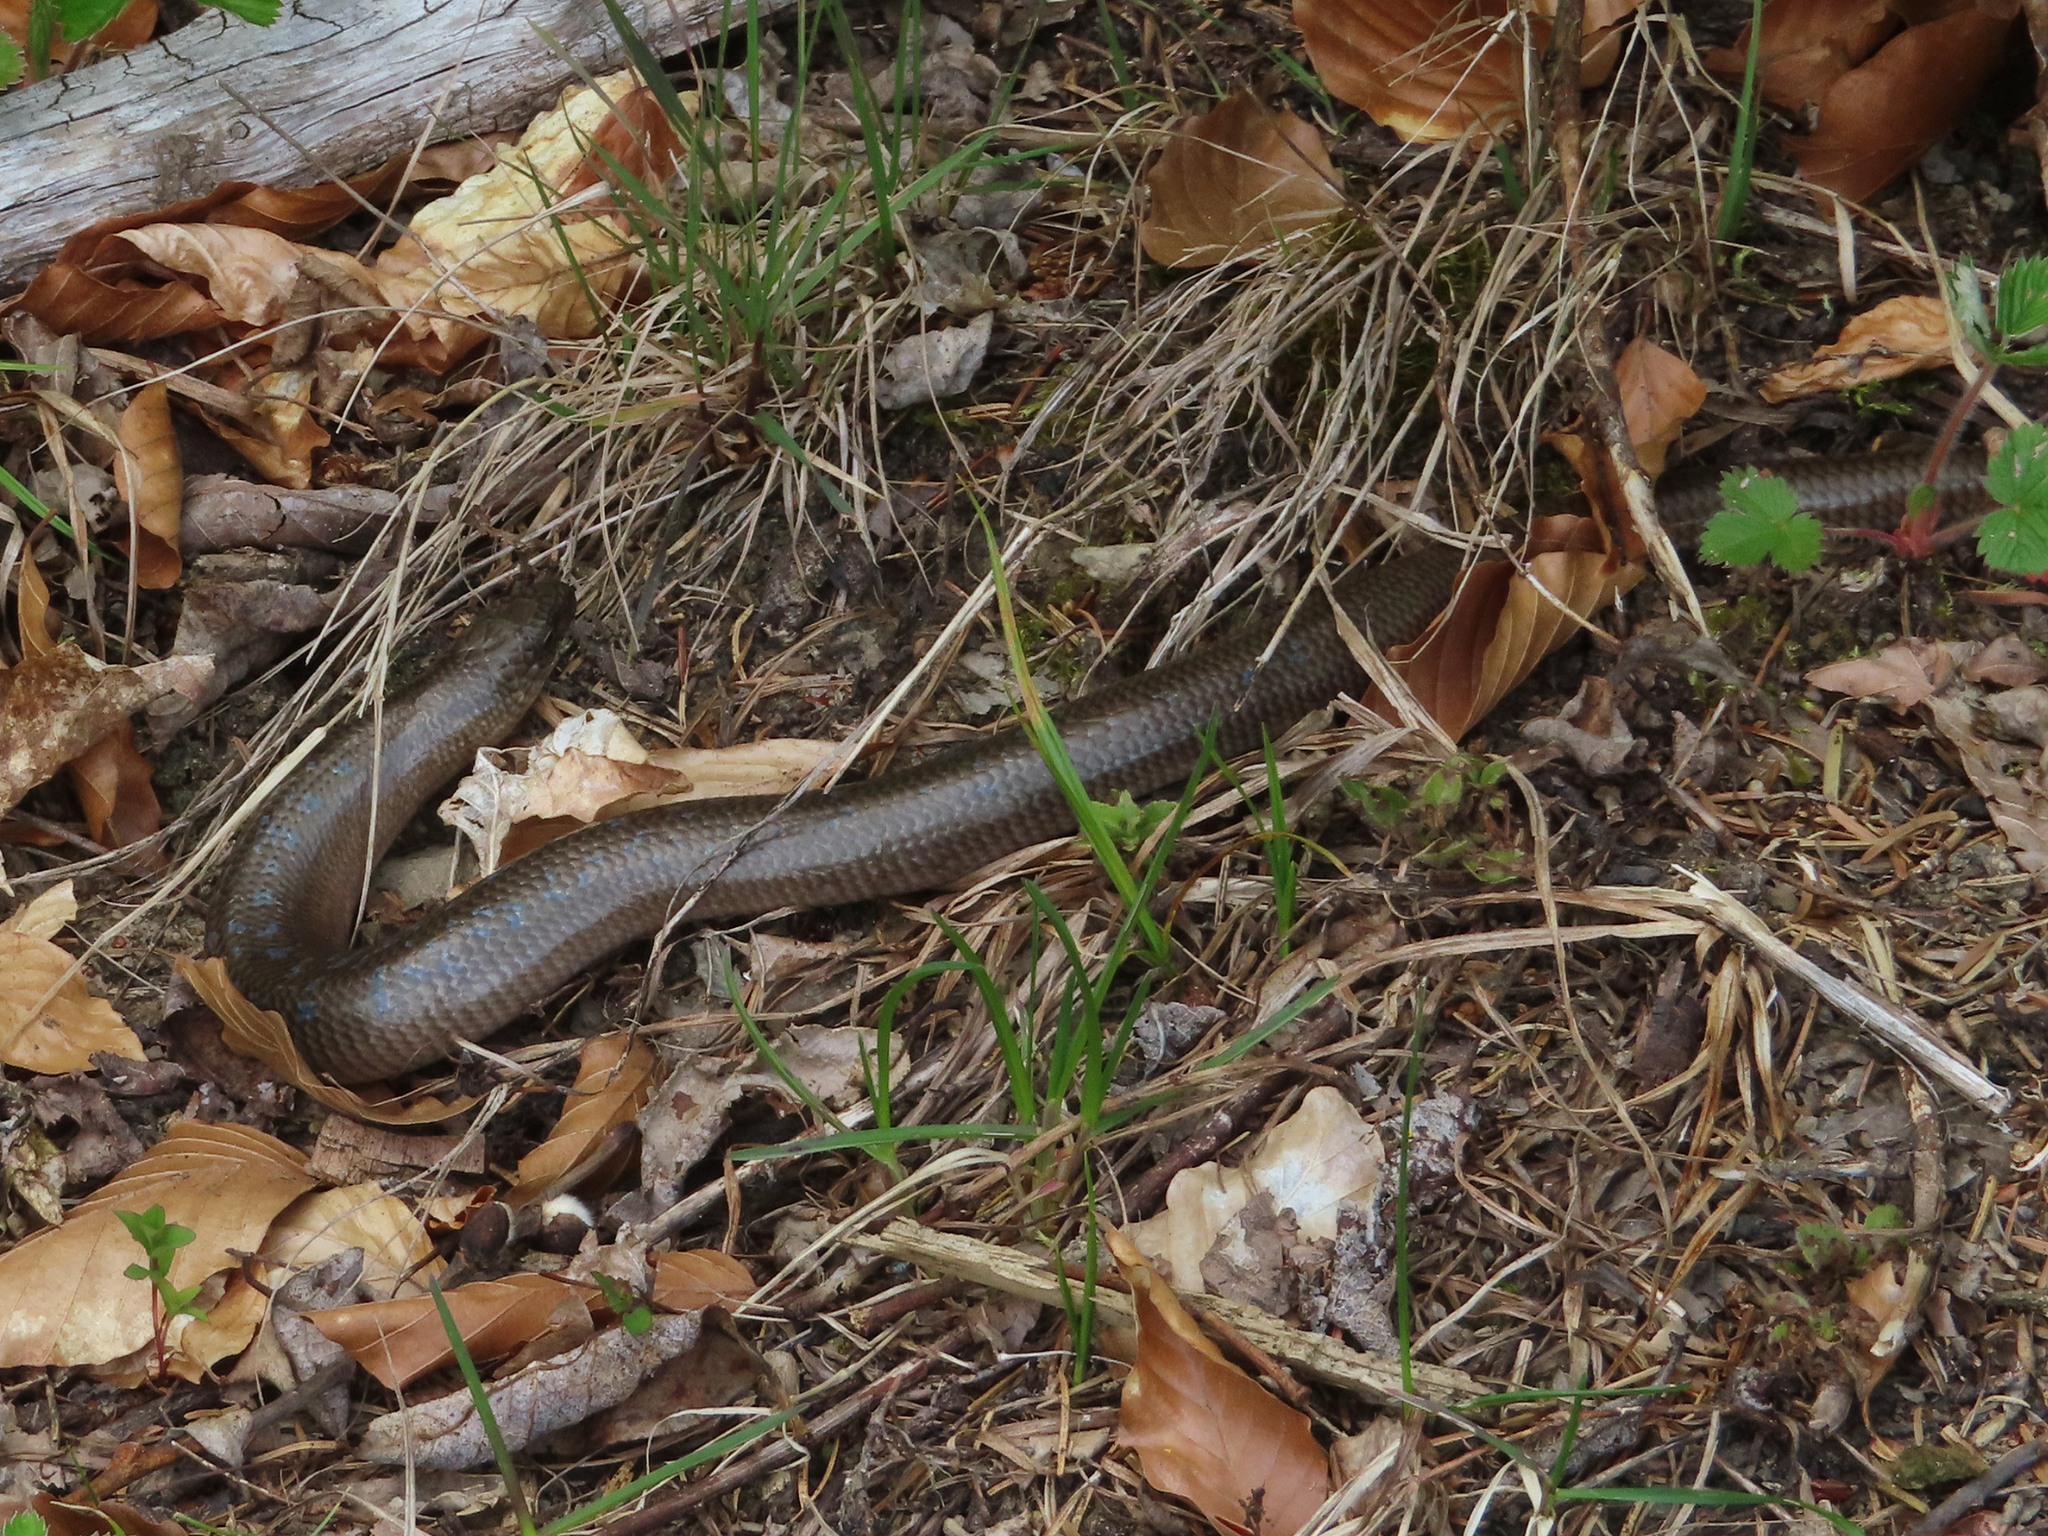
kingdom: Animalia
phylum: Chordata
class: Squamata
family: Anguidae
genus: Anguis
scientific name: Anguis colchica
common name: Slow worm
